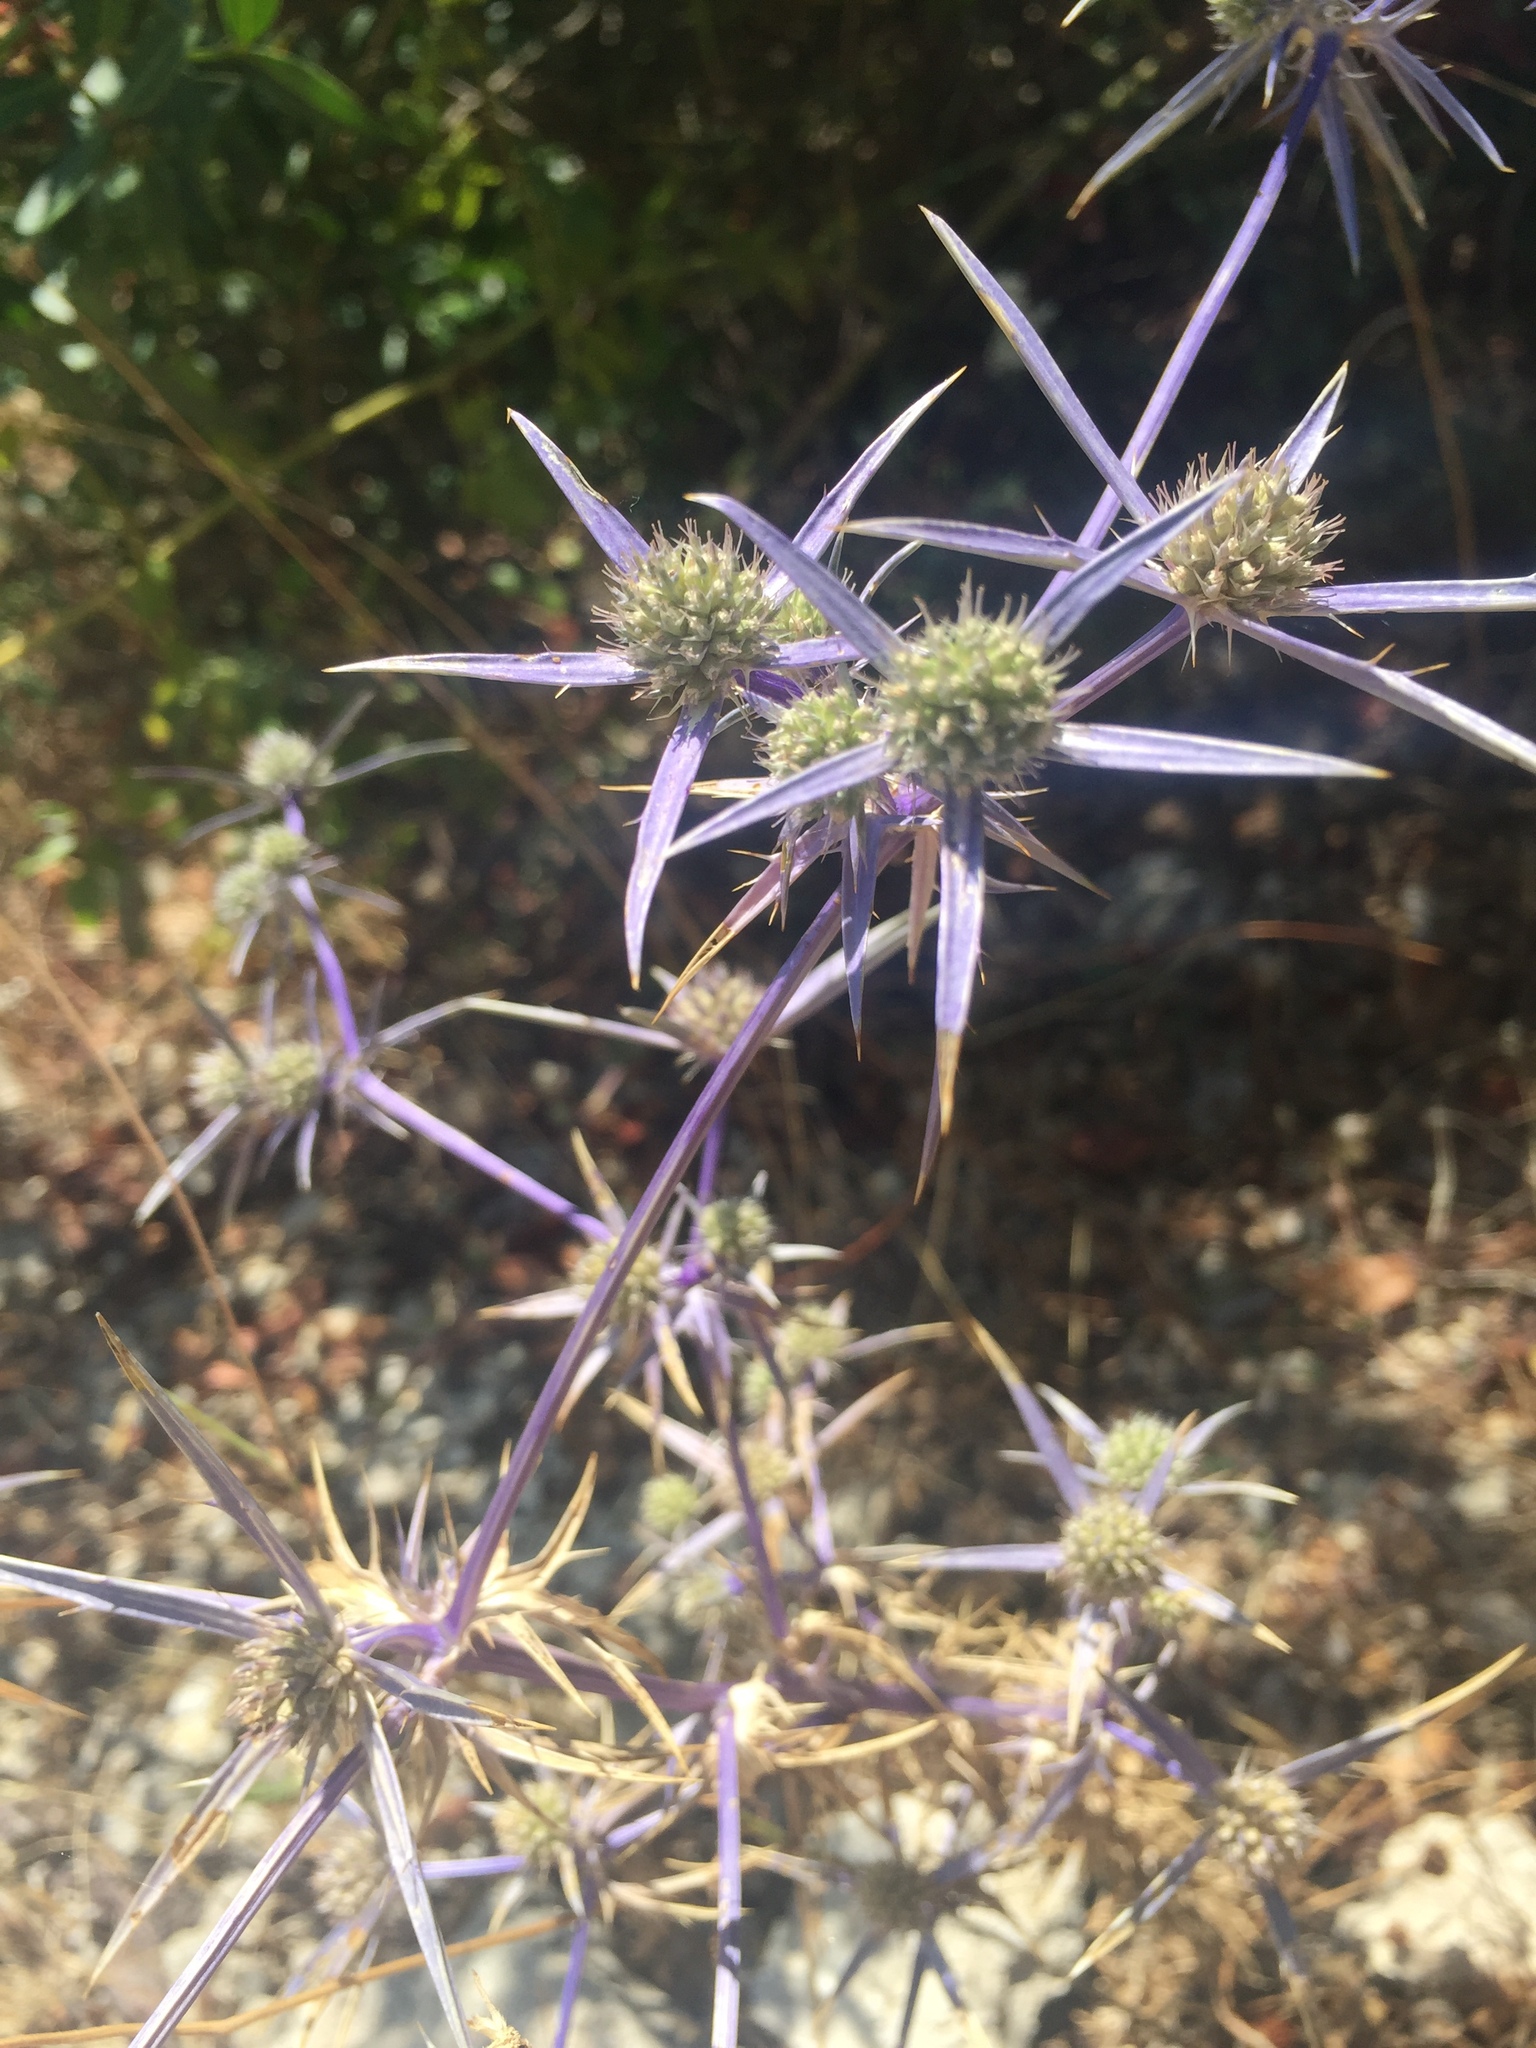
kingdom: Plantae
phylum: Tracheophyta
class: Magnoliopsida
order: Apiales
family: Apiaceae
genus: Eryngium
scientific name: Eryngium creticum
